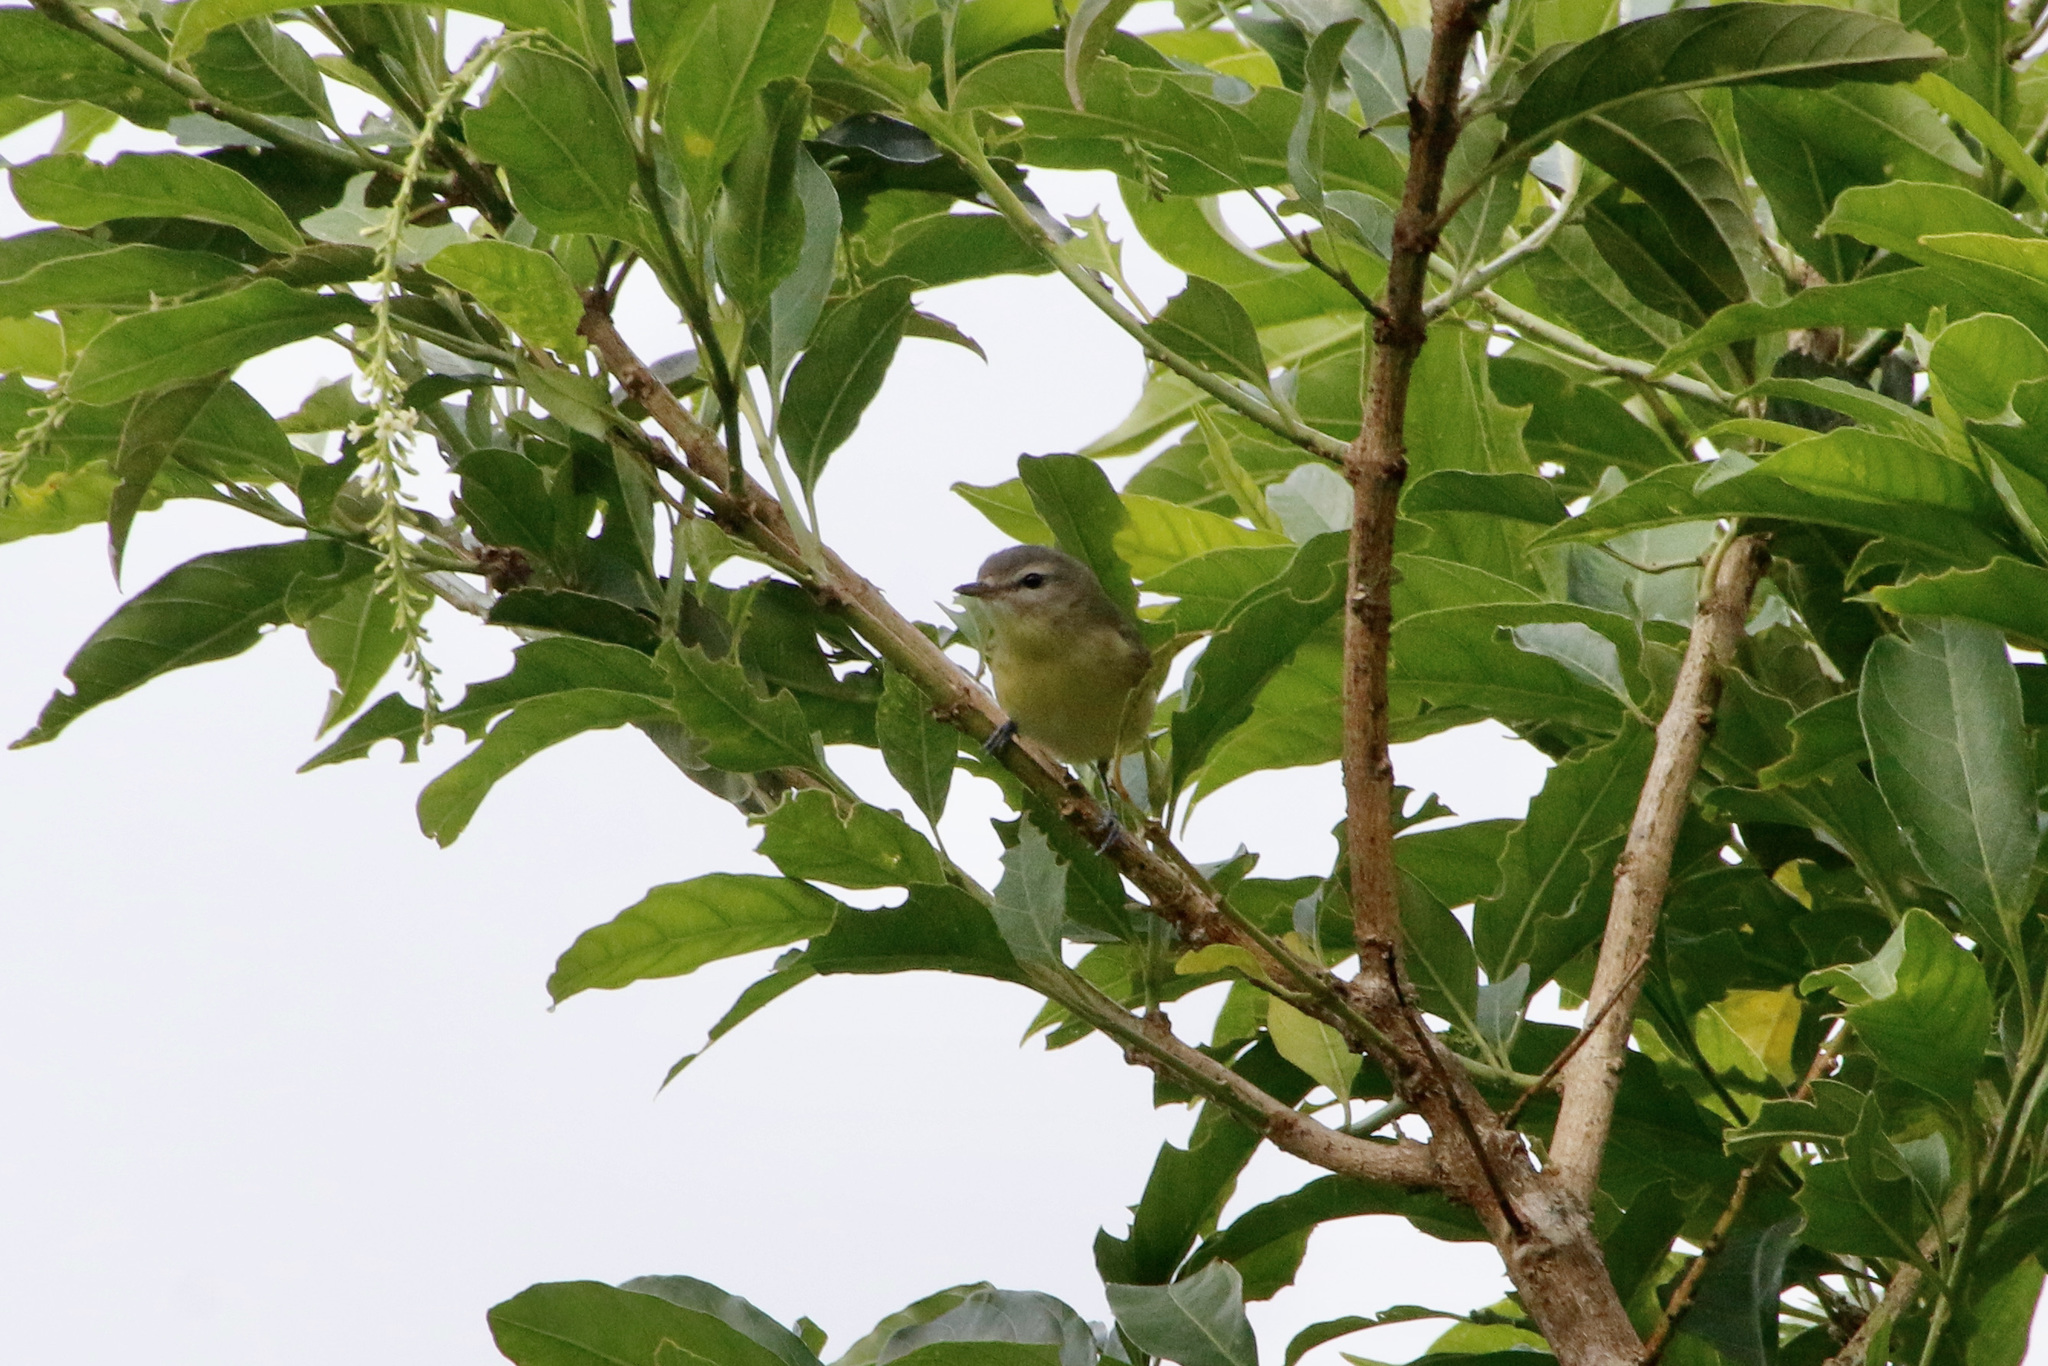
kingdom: Animalia
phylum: Chordata
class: Aves
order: Passeriformes
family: Vireonidae
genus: Vireo
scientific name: Vireo philadelphicus
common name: Philadelphia vireo
